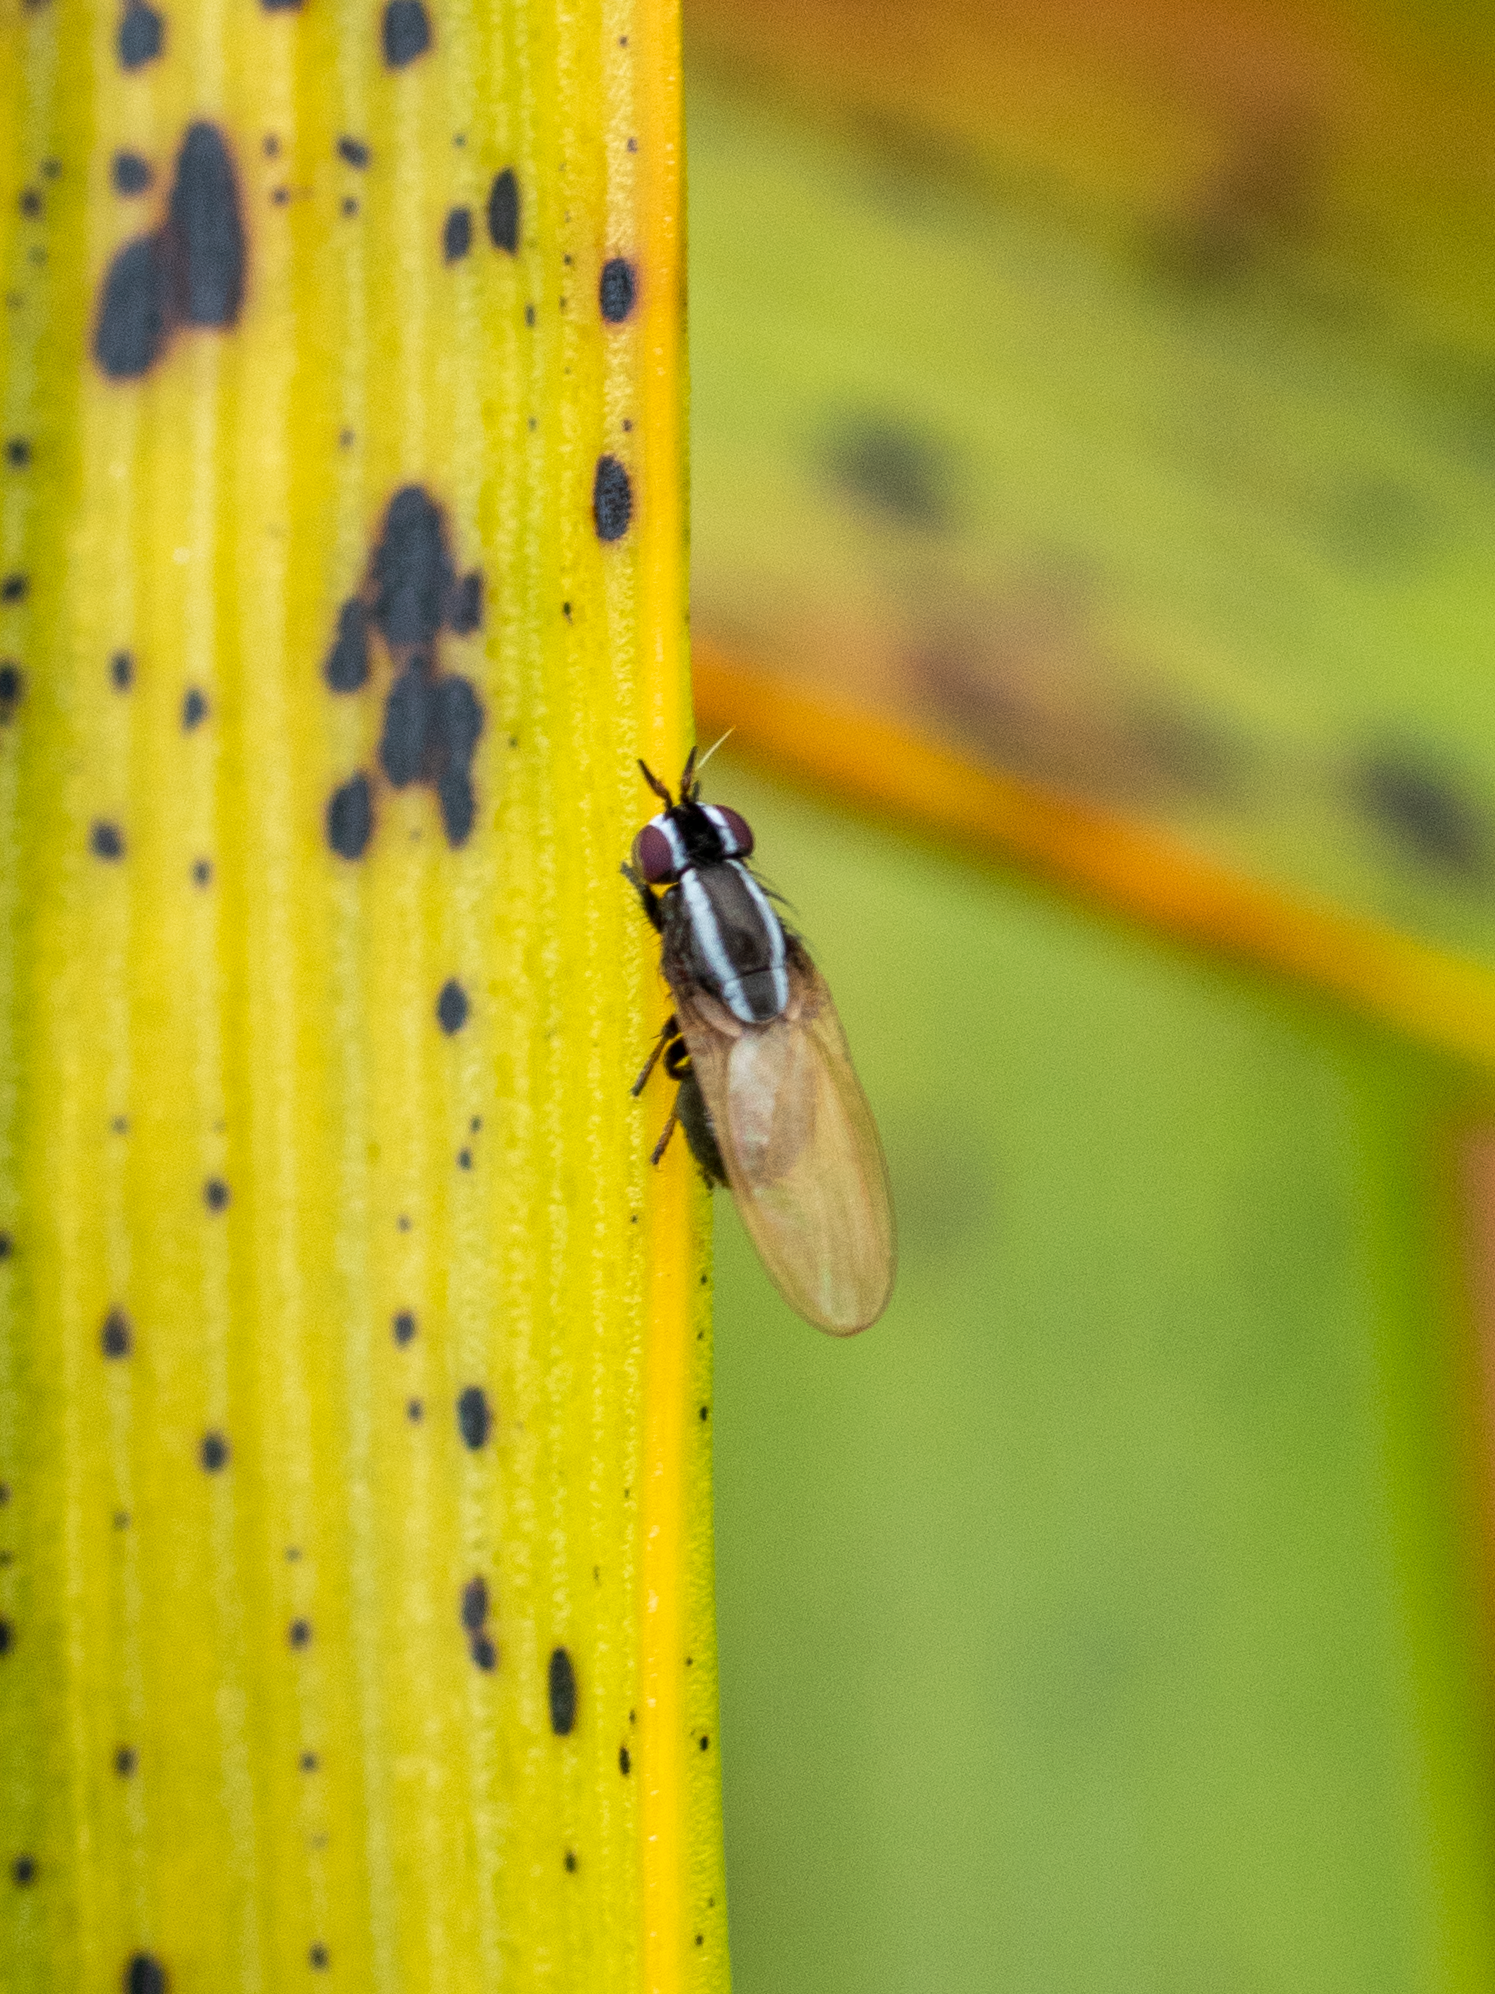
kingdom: Animalia
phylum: Arthropoda
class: Insecta
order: Diptera
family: Lauxaniidae
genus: Poecilohetaerella
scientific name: Poecilohetaerella bilineata
